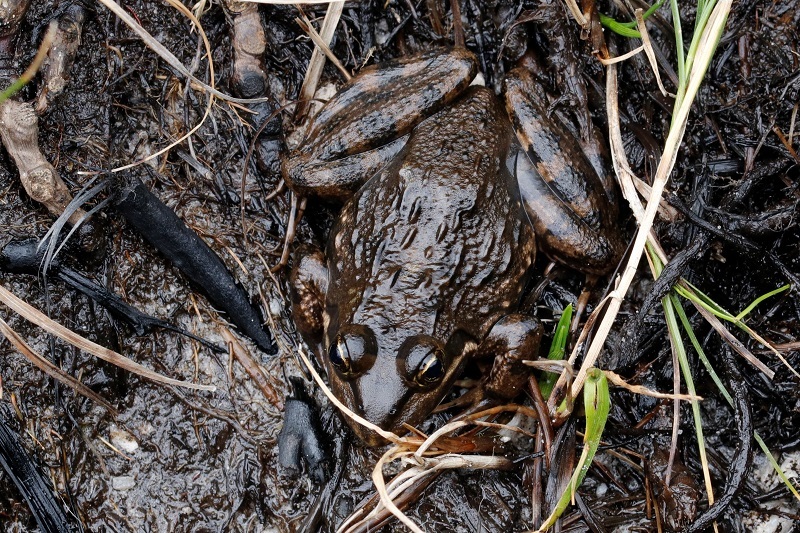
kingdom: Animalia
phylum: Chordata
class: Amphibia
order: Anura
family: Pyxicephalidae
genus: Amietia
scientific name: Amietia fuscigula
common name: Cape rana
